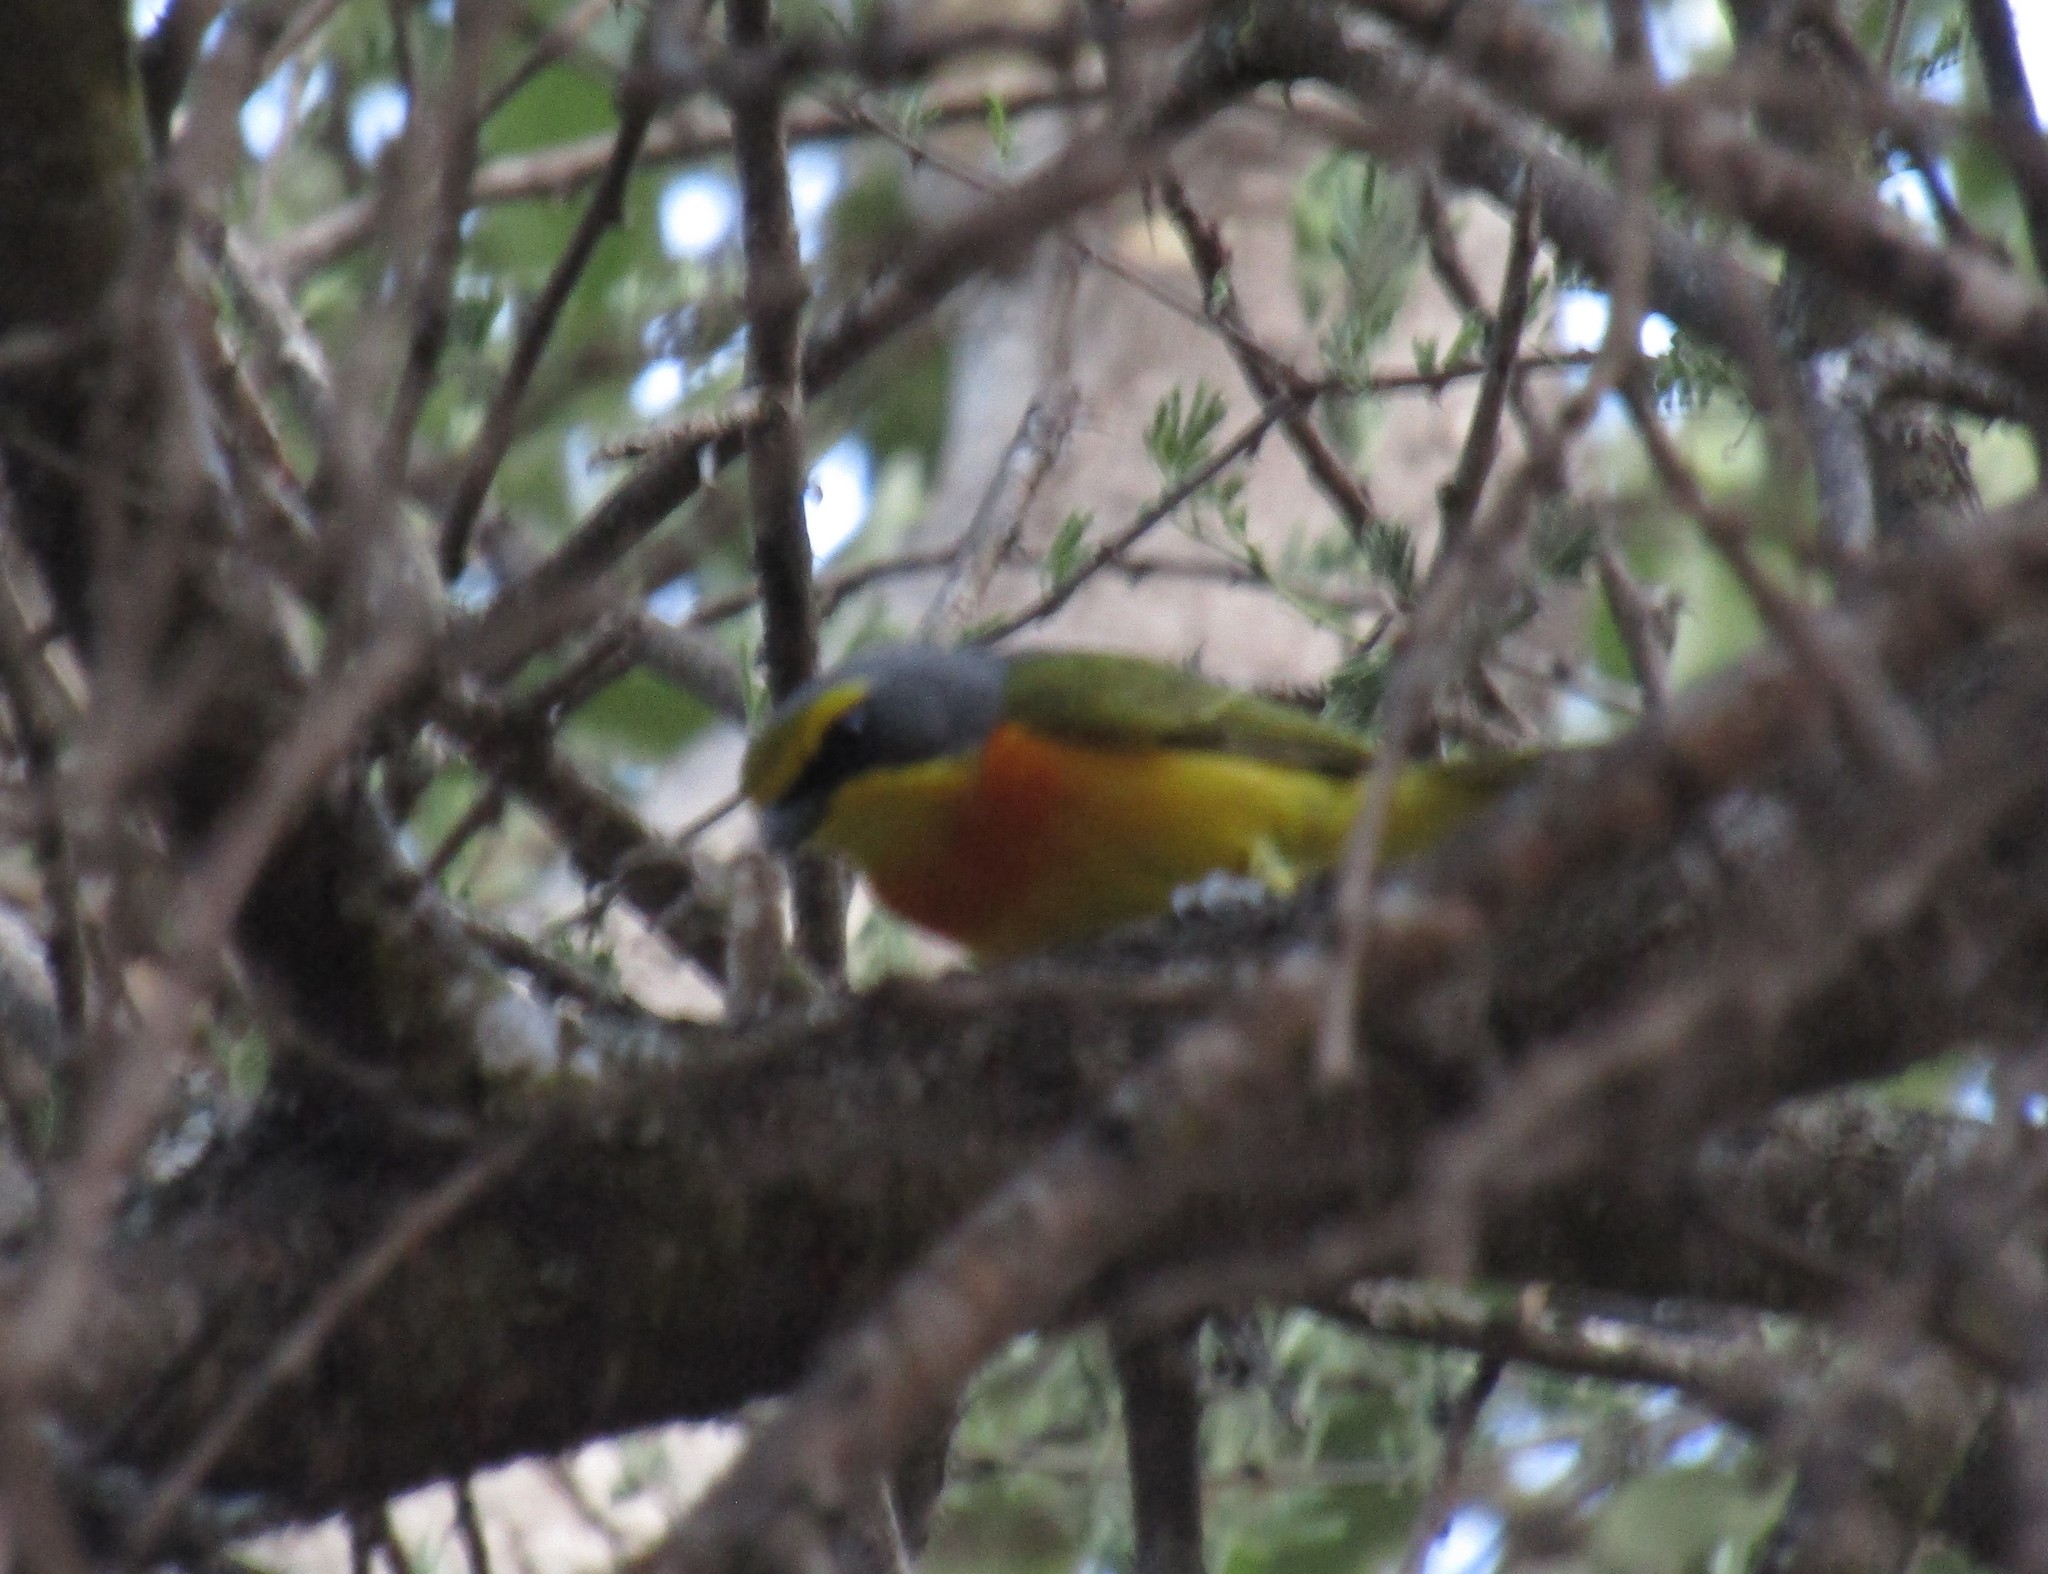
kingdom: Animalia
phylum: Chordata
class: Aves
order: Passeriformes
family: Malaconotidae
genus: Chlorophoneus
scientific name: Chlorophoneus sulfureopectus
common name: Orange-breasted bushshrike
